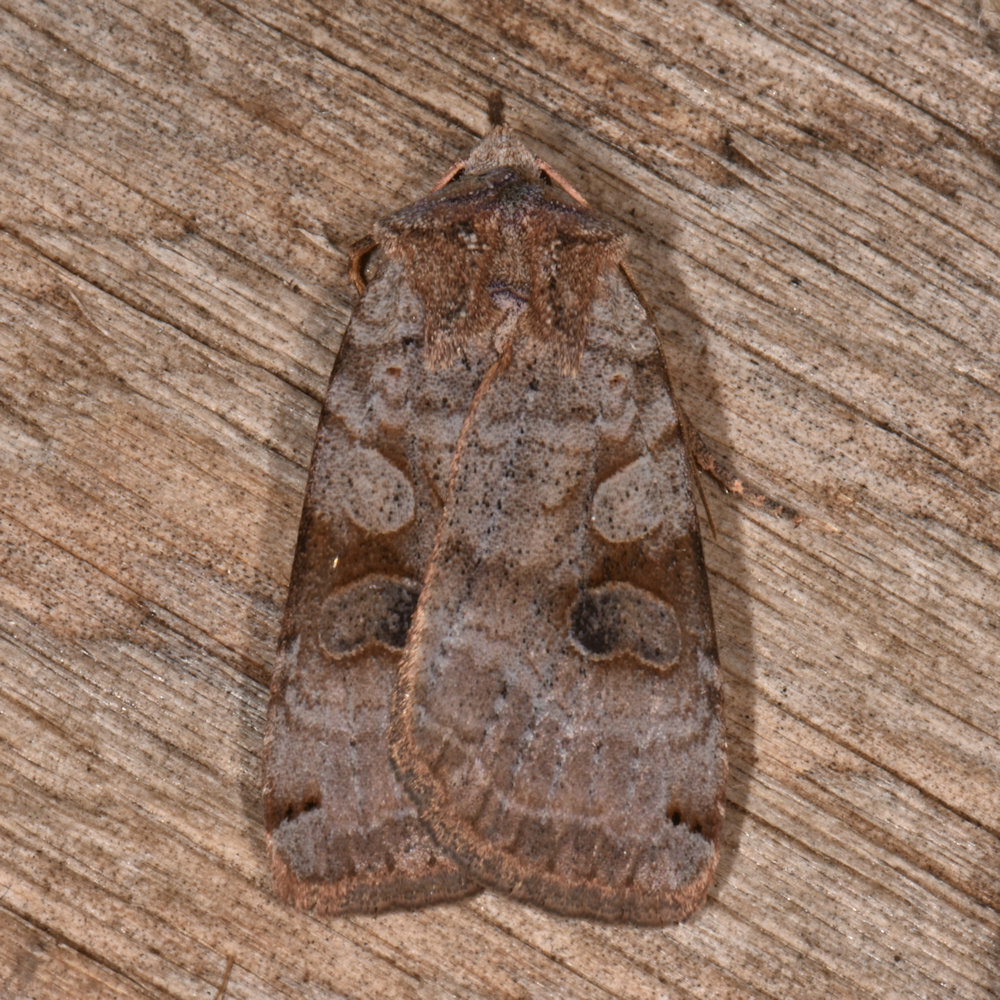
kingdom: Animalia
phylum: Arthropoda
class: Insecta
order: Lepidoptera
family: Noctuidae
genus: Xestia
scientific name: Xestia smithii
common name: Smith's dart
